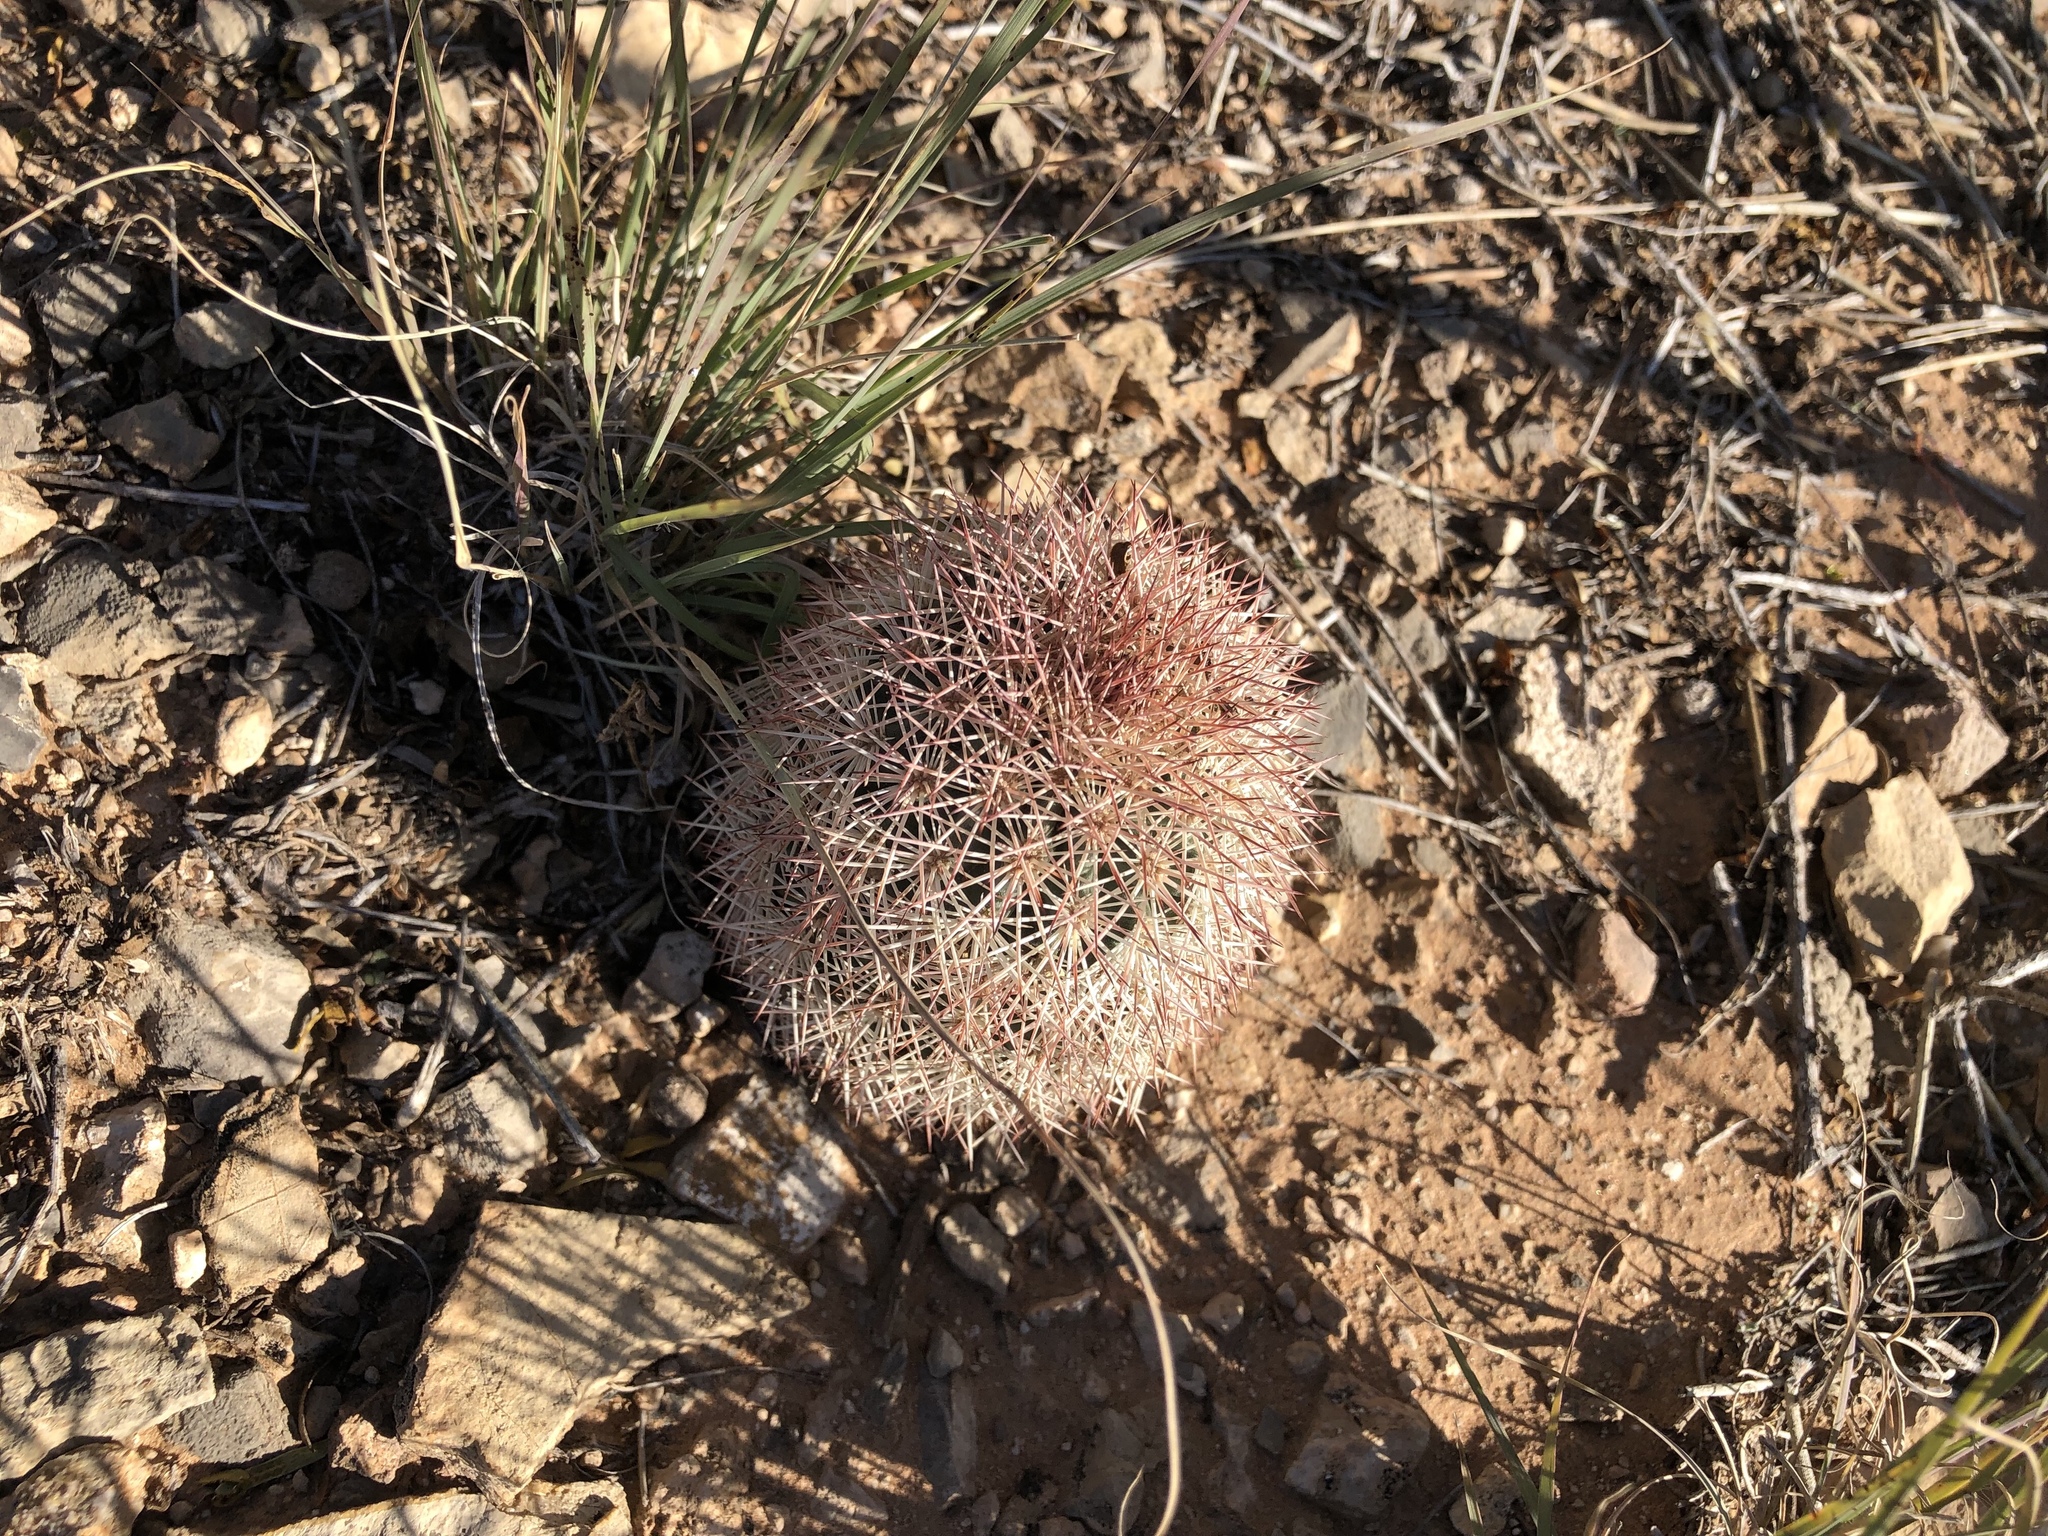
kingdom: Plantae
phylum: Tracheophyta
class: Magnoliopsida
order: Caryophyllales
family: Cactaceae
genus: Echinocereus
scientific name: Echinocereus dasyacanthus
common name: Spiny hedgehog cactus
